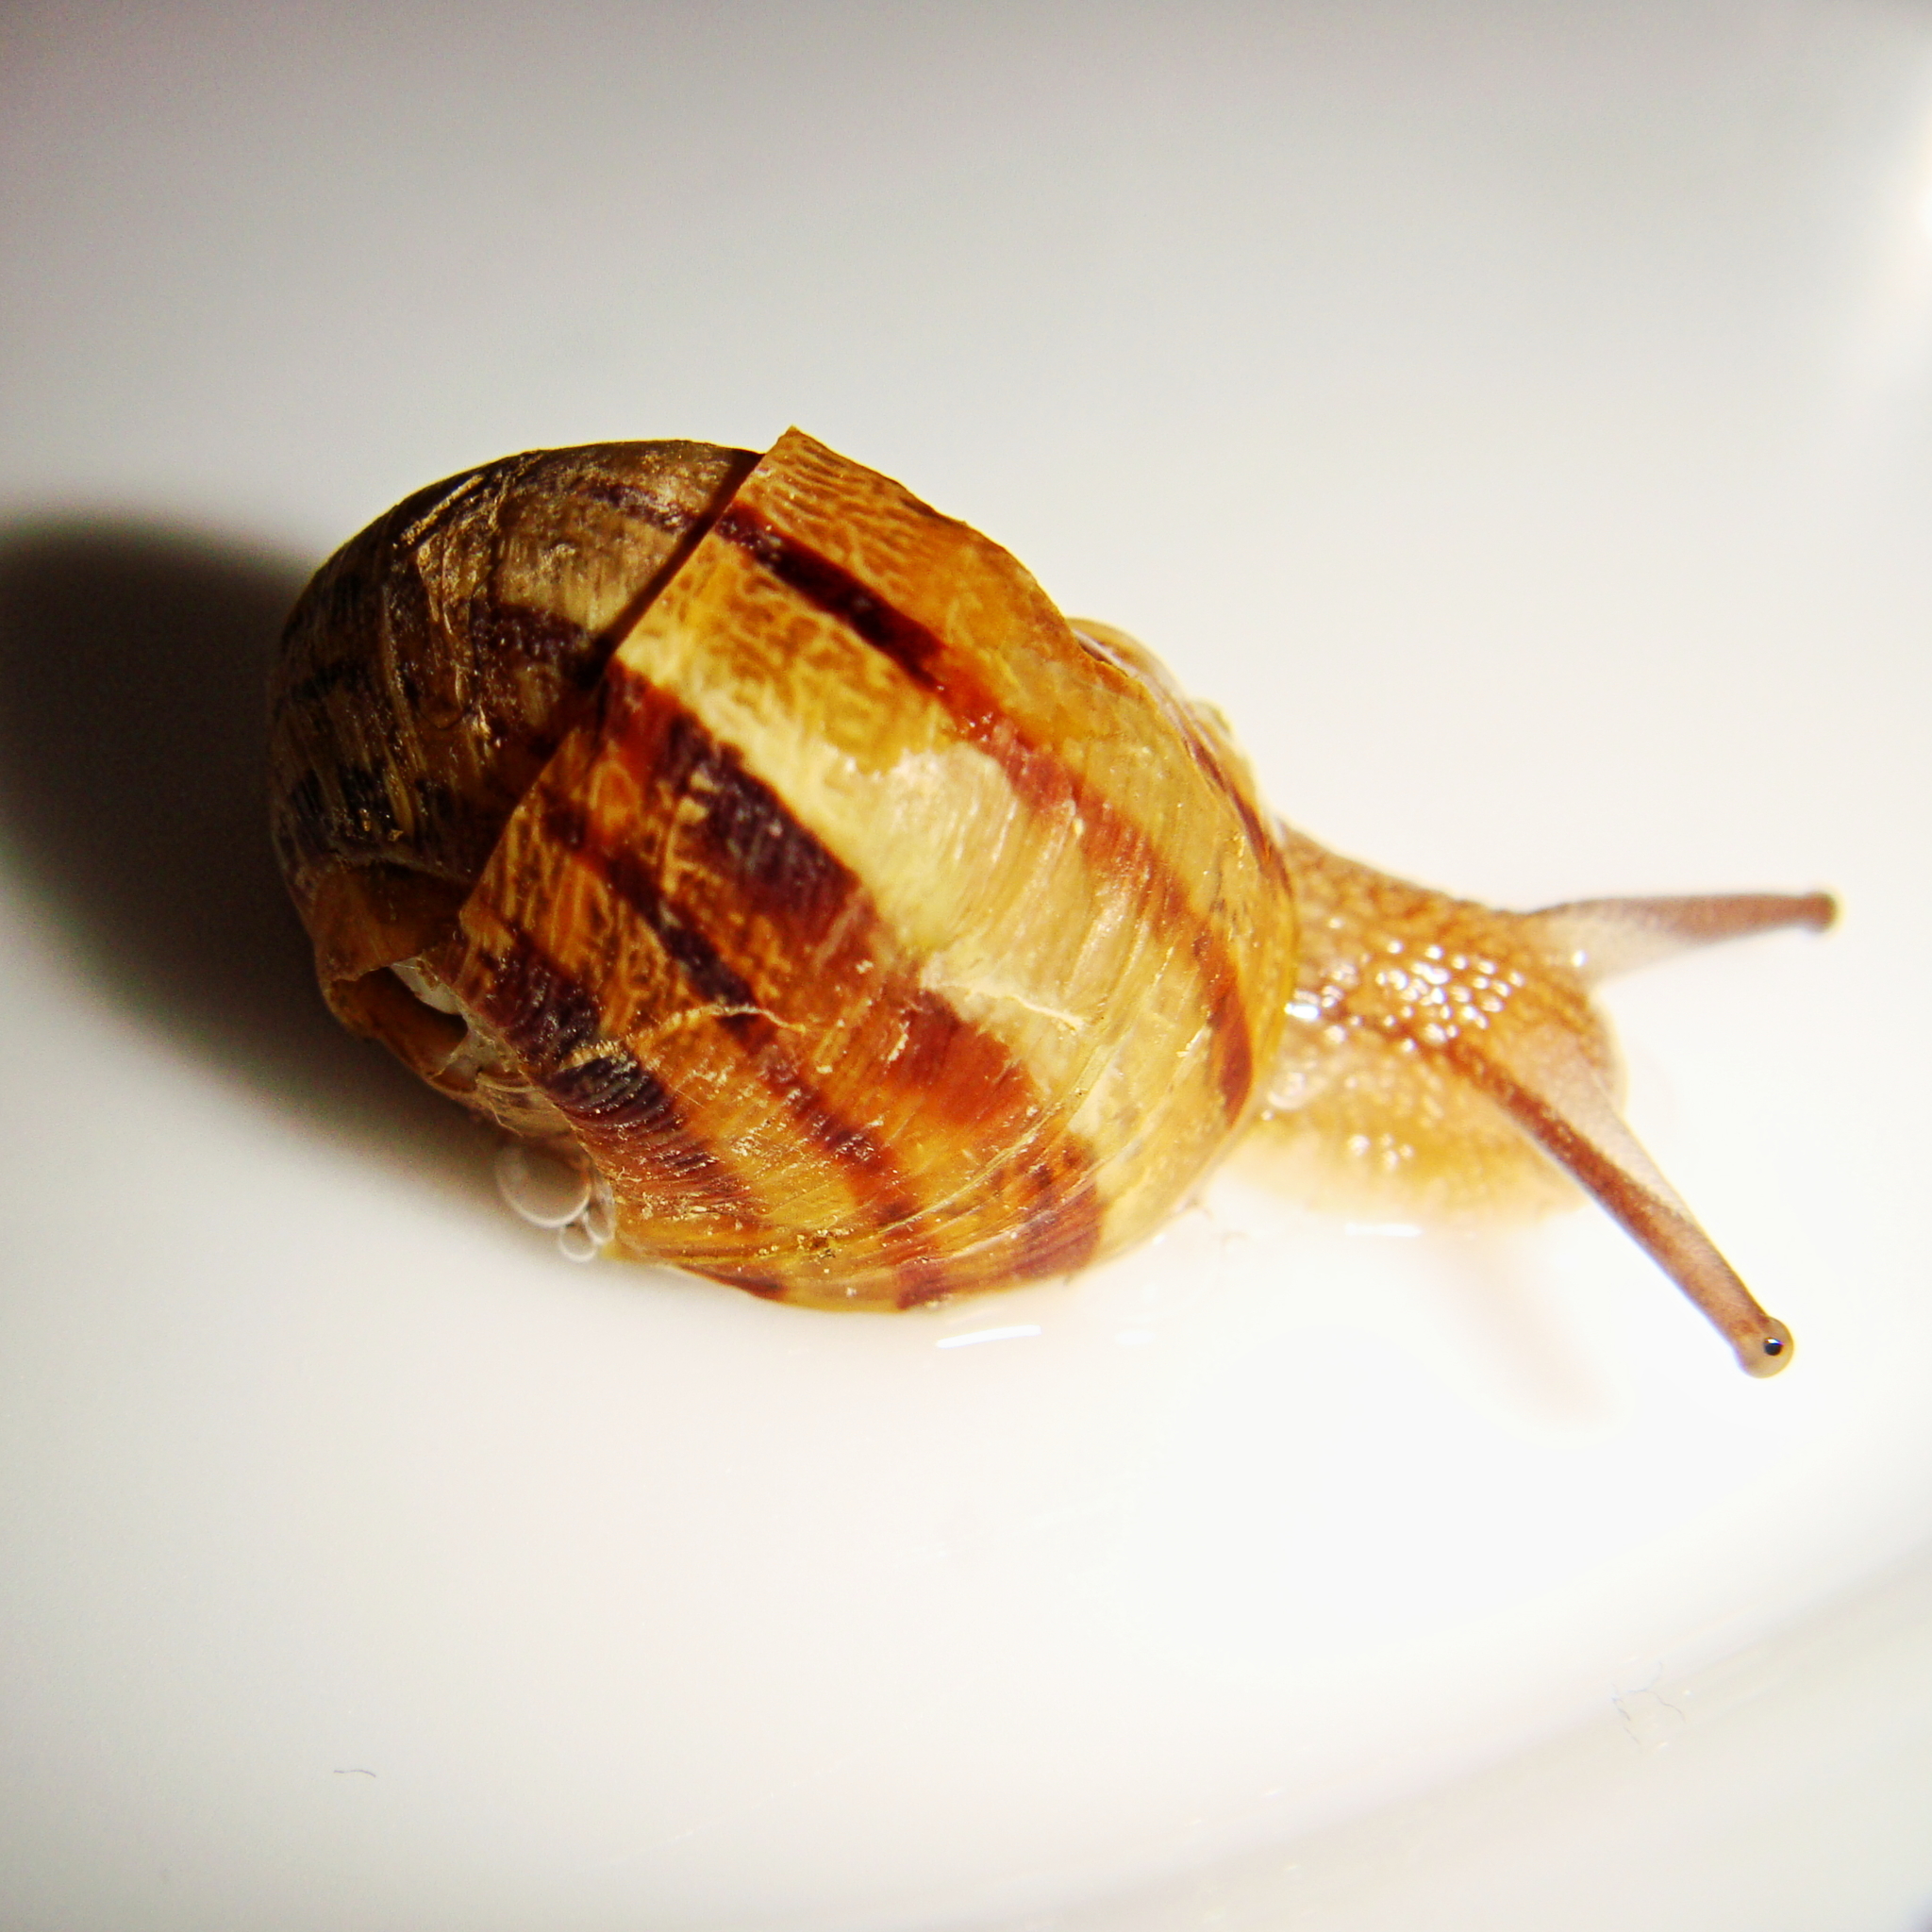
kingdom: Animalia
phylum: Mollusca
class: Gastropoda
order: Stylommatophora
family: Helicidae
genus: Cornu
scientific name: Cornu aspersum
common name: Brown garden snail
